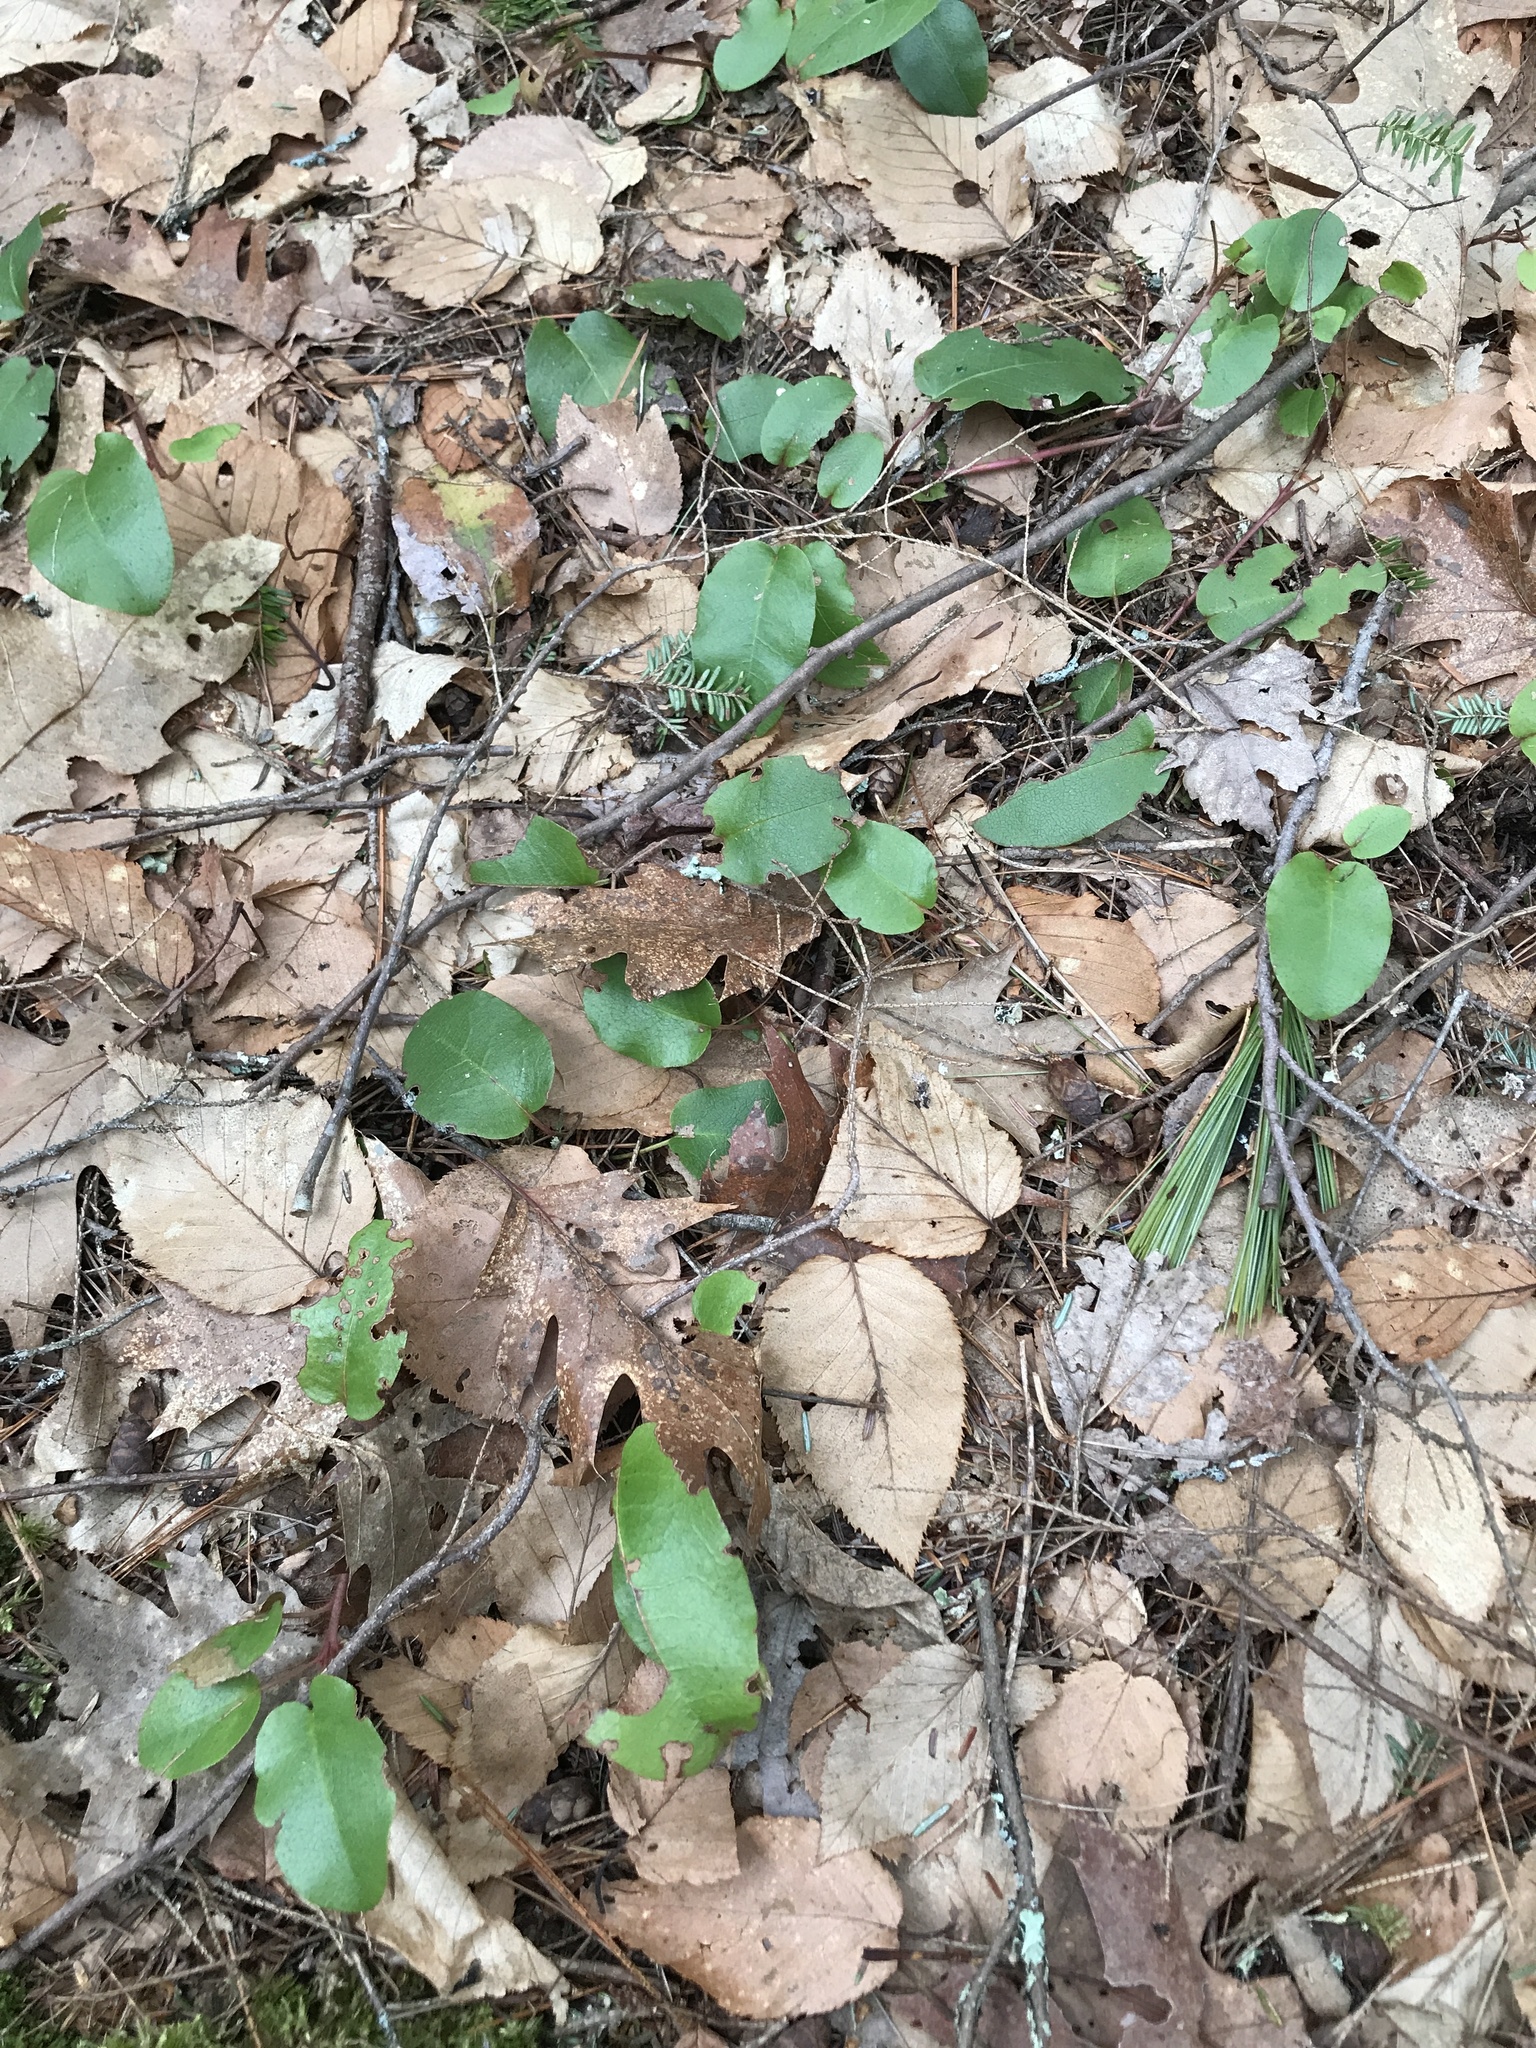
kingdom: Plantae
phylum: Tracheophyta
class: Magnoliopsida
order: Ericales
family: Ericaceae
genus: Epigaea
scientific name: Epigaea repens
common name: Gravelroot
